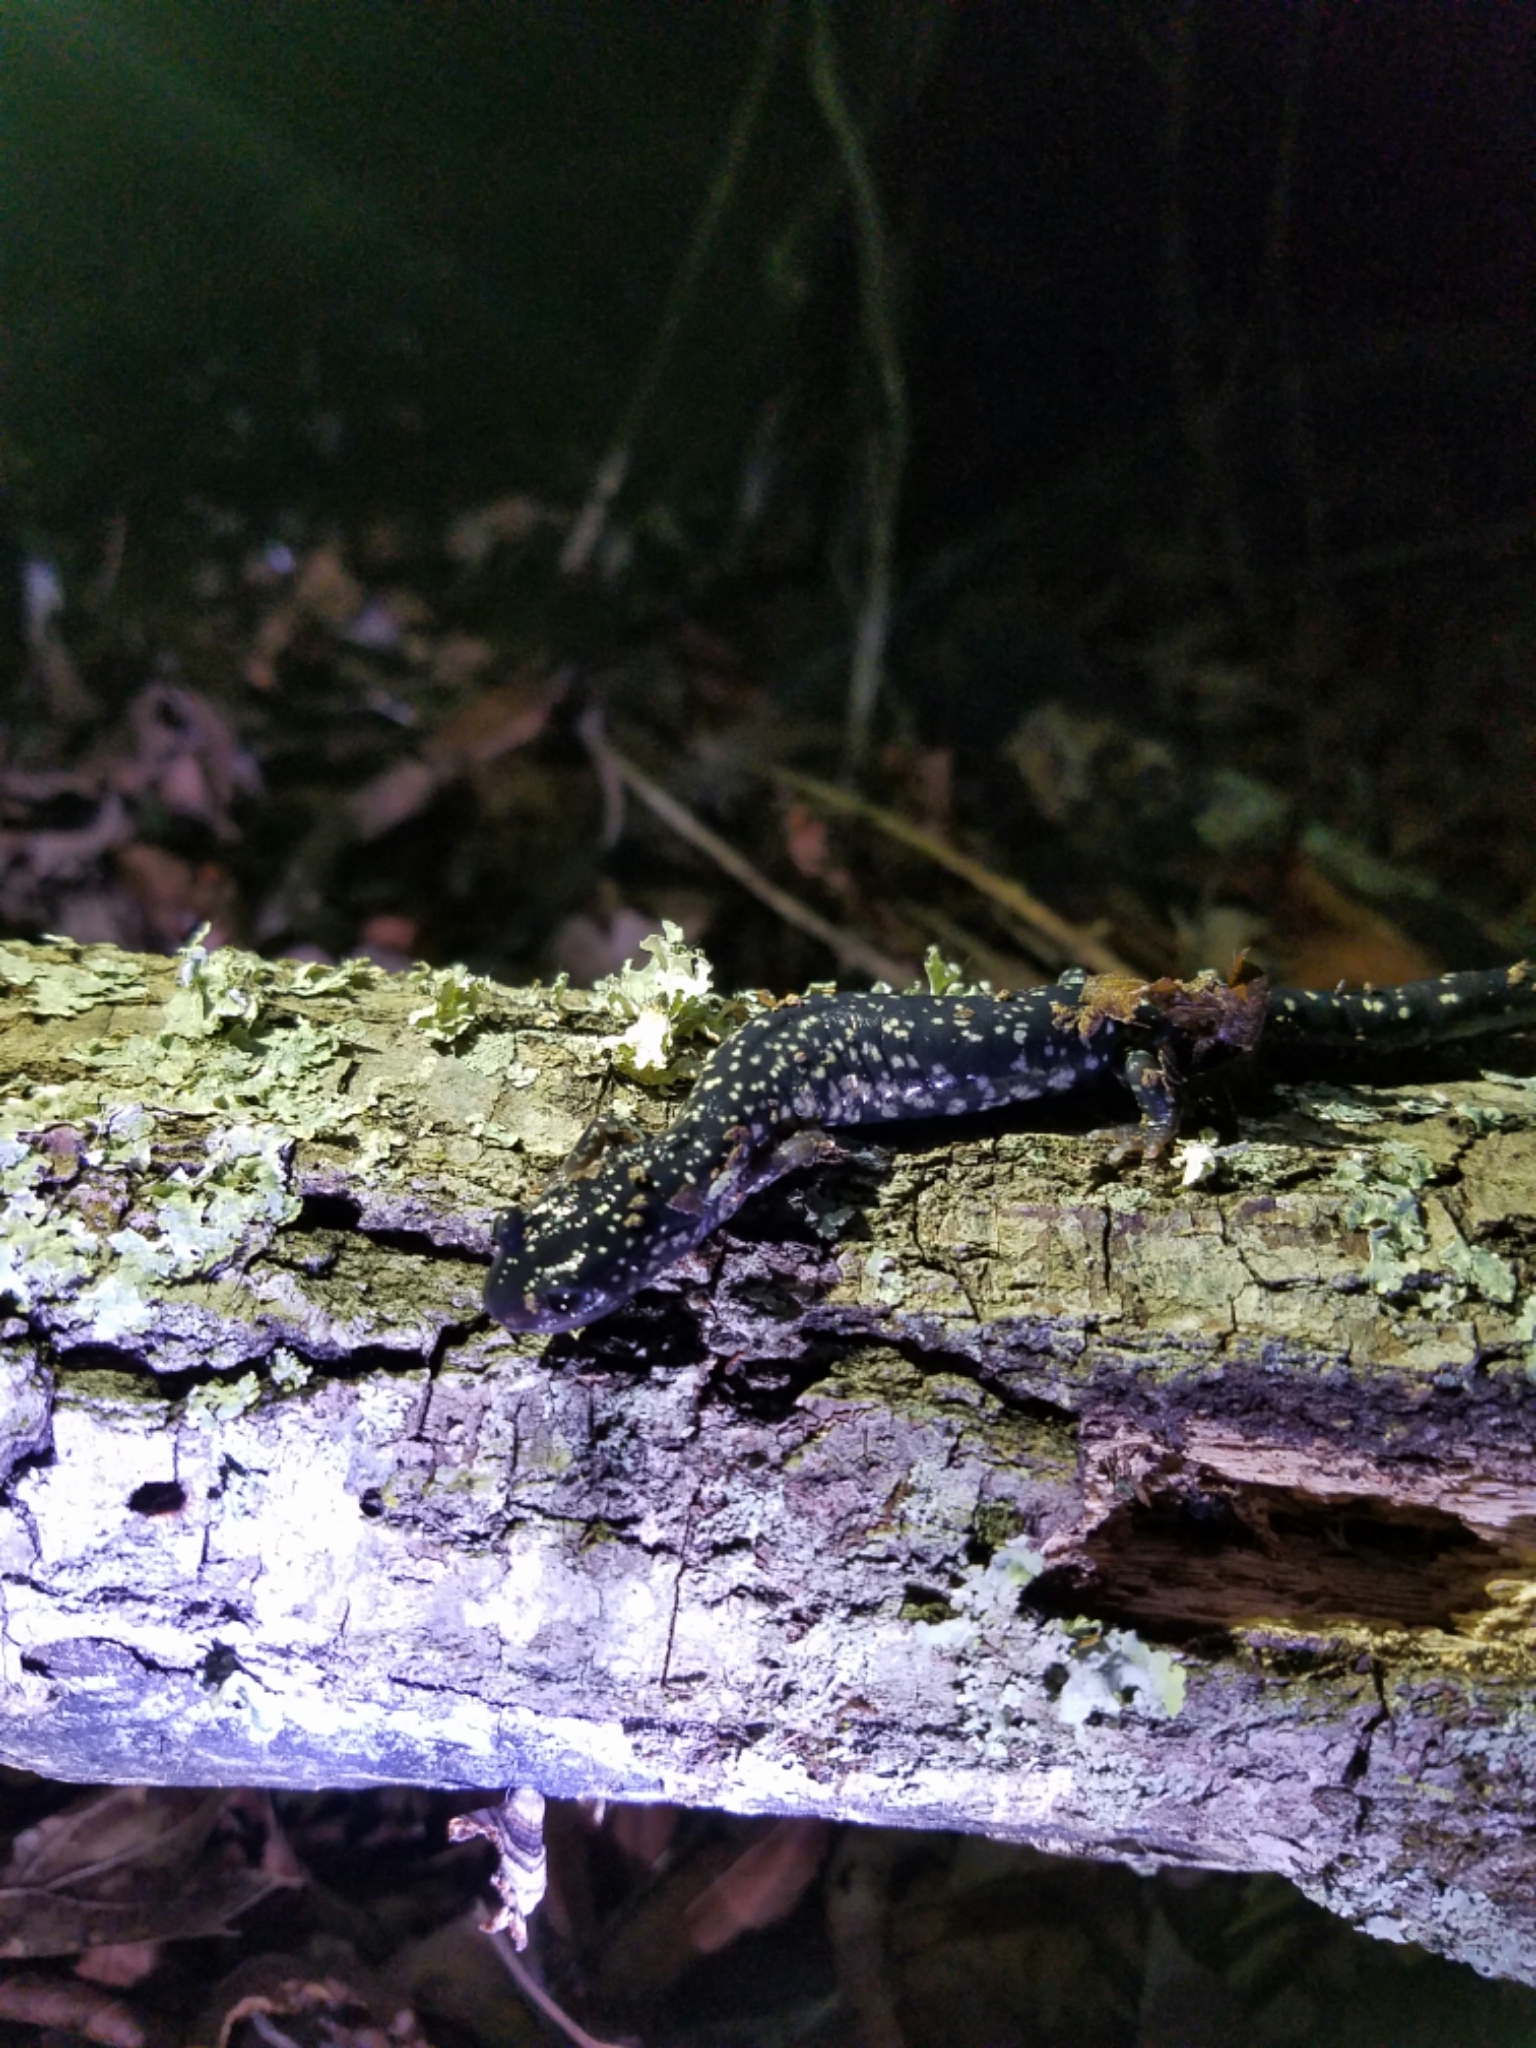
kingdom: Animalia
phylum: Chordata
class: Amphibia
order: Caudata
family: Plethodontidae
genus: Plethodon
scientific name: Plethodon albagula
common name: Western slimy salamander
